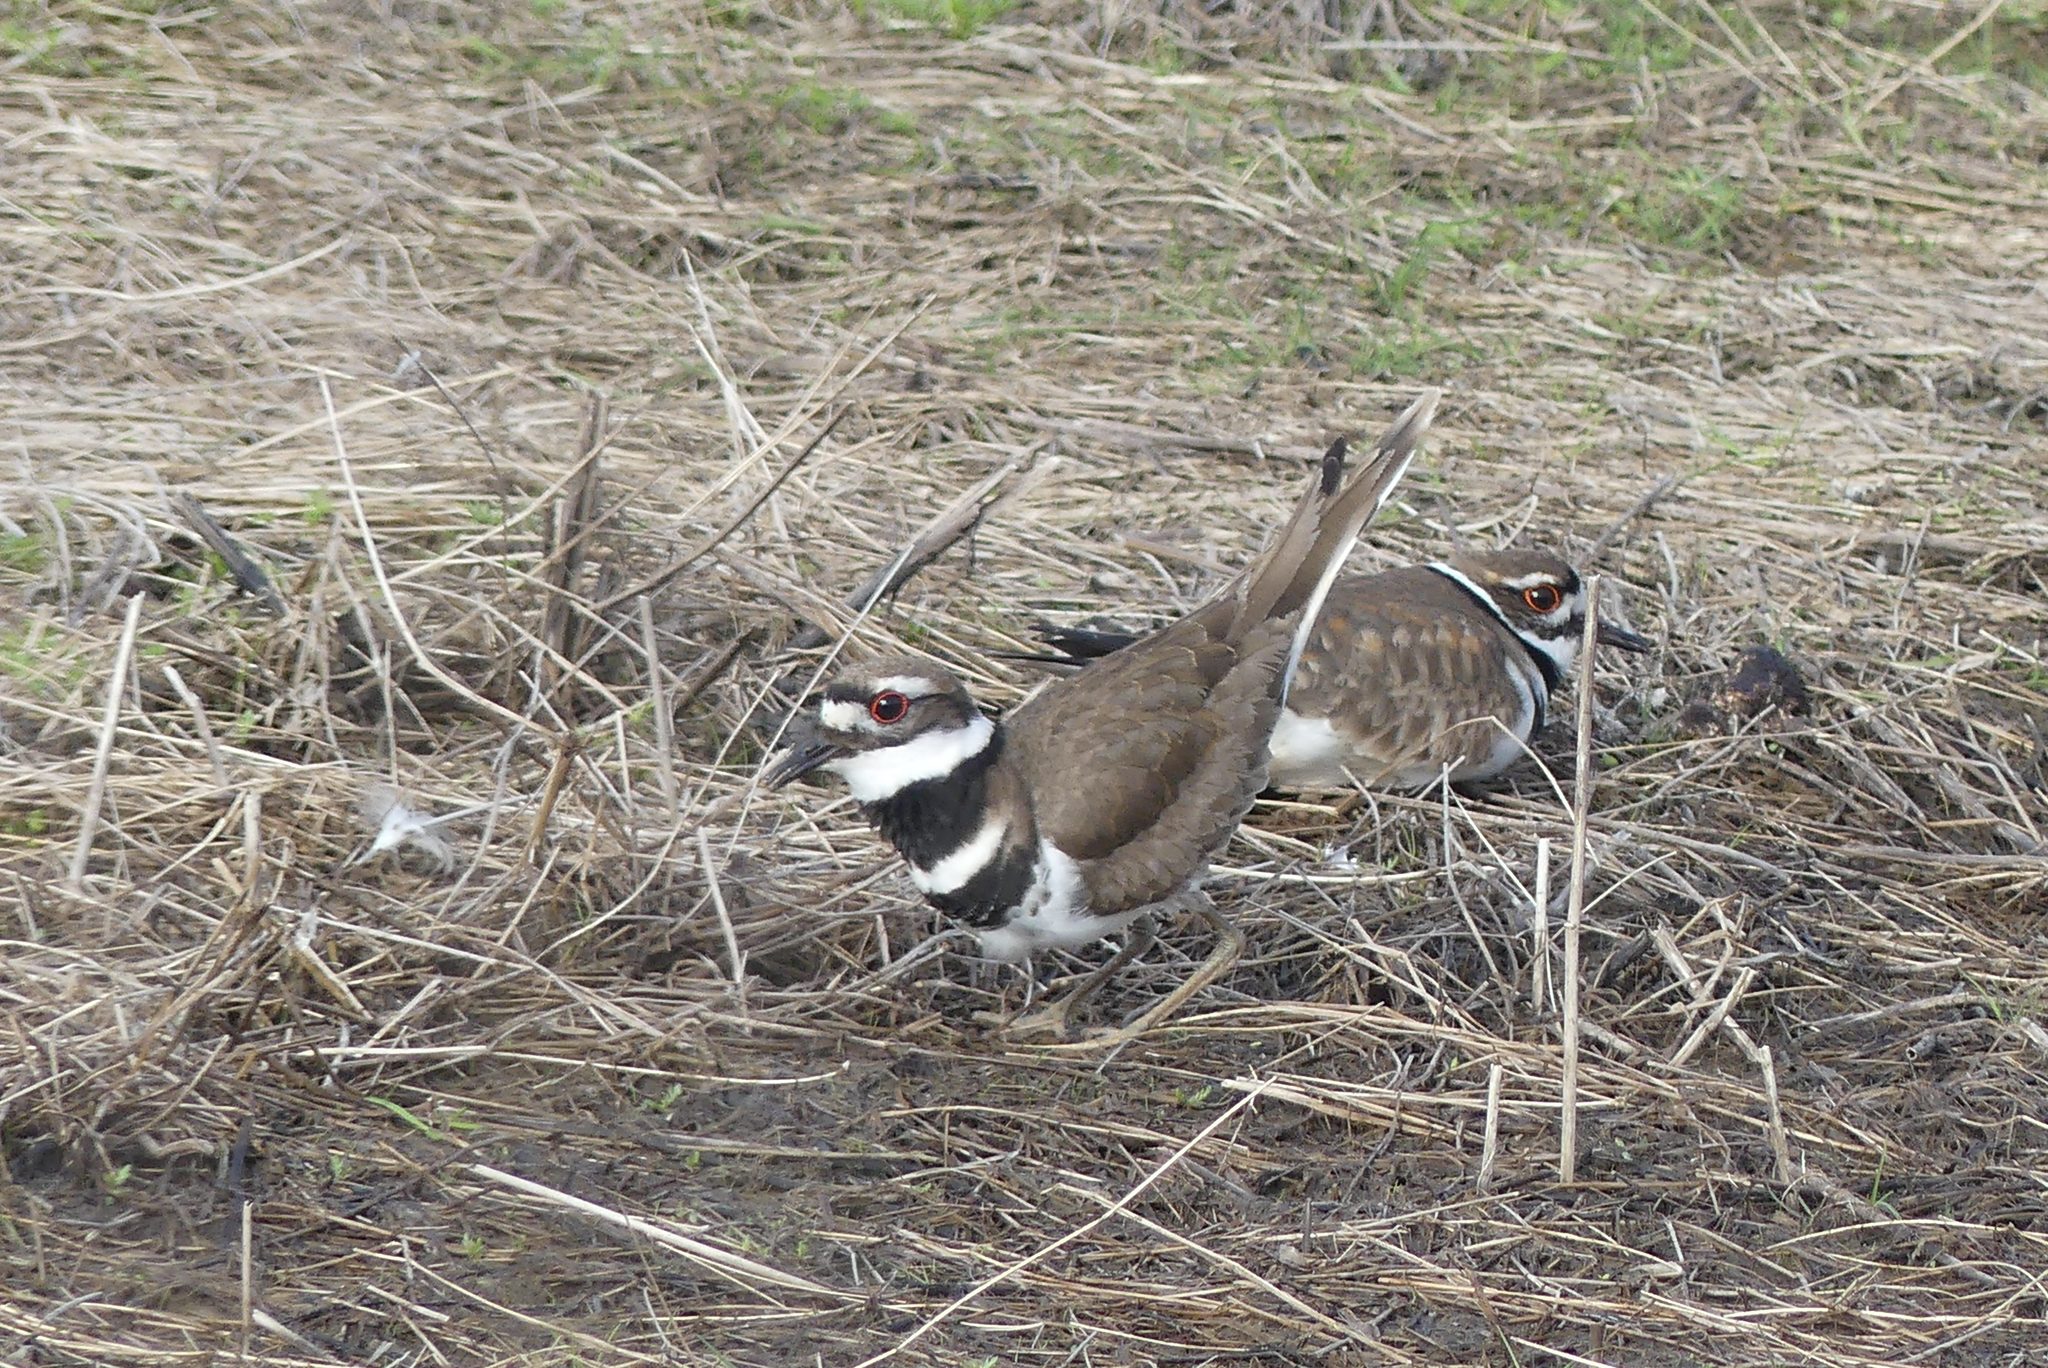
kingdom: Animalia
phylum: Chordata
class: Aves
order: Charadriiformes
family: Charadriidae
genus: Charadrius
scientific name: Charadrius vociferus
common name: Killdeer
